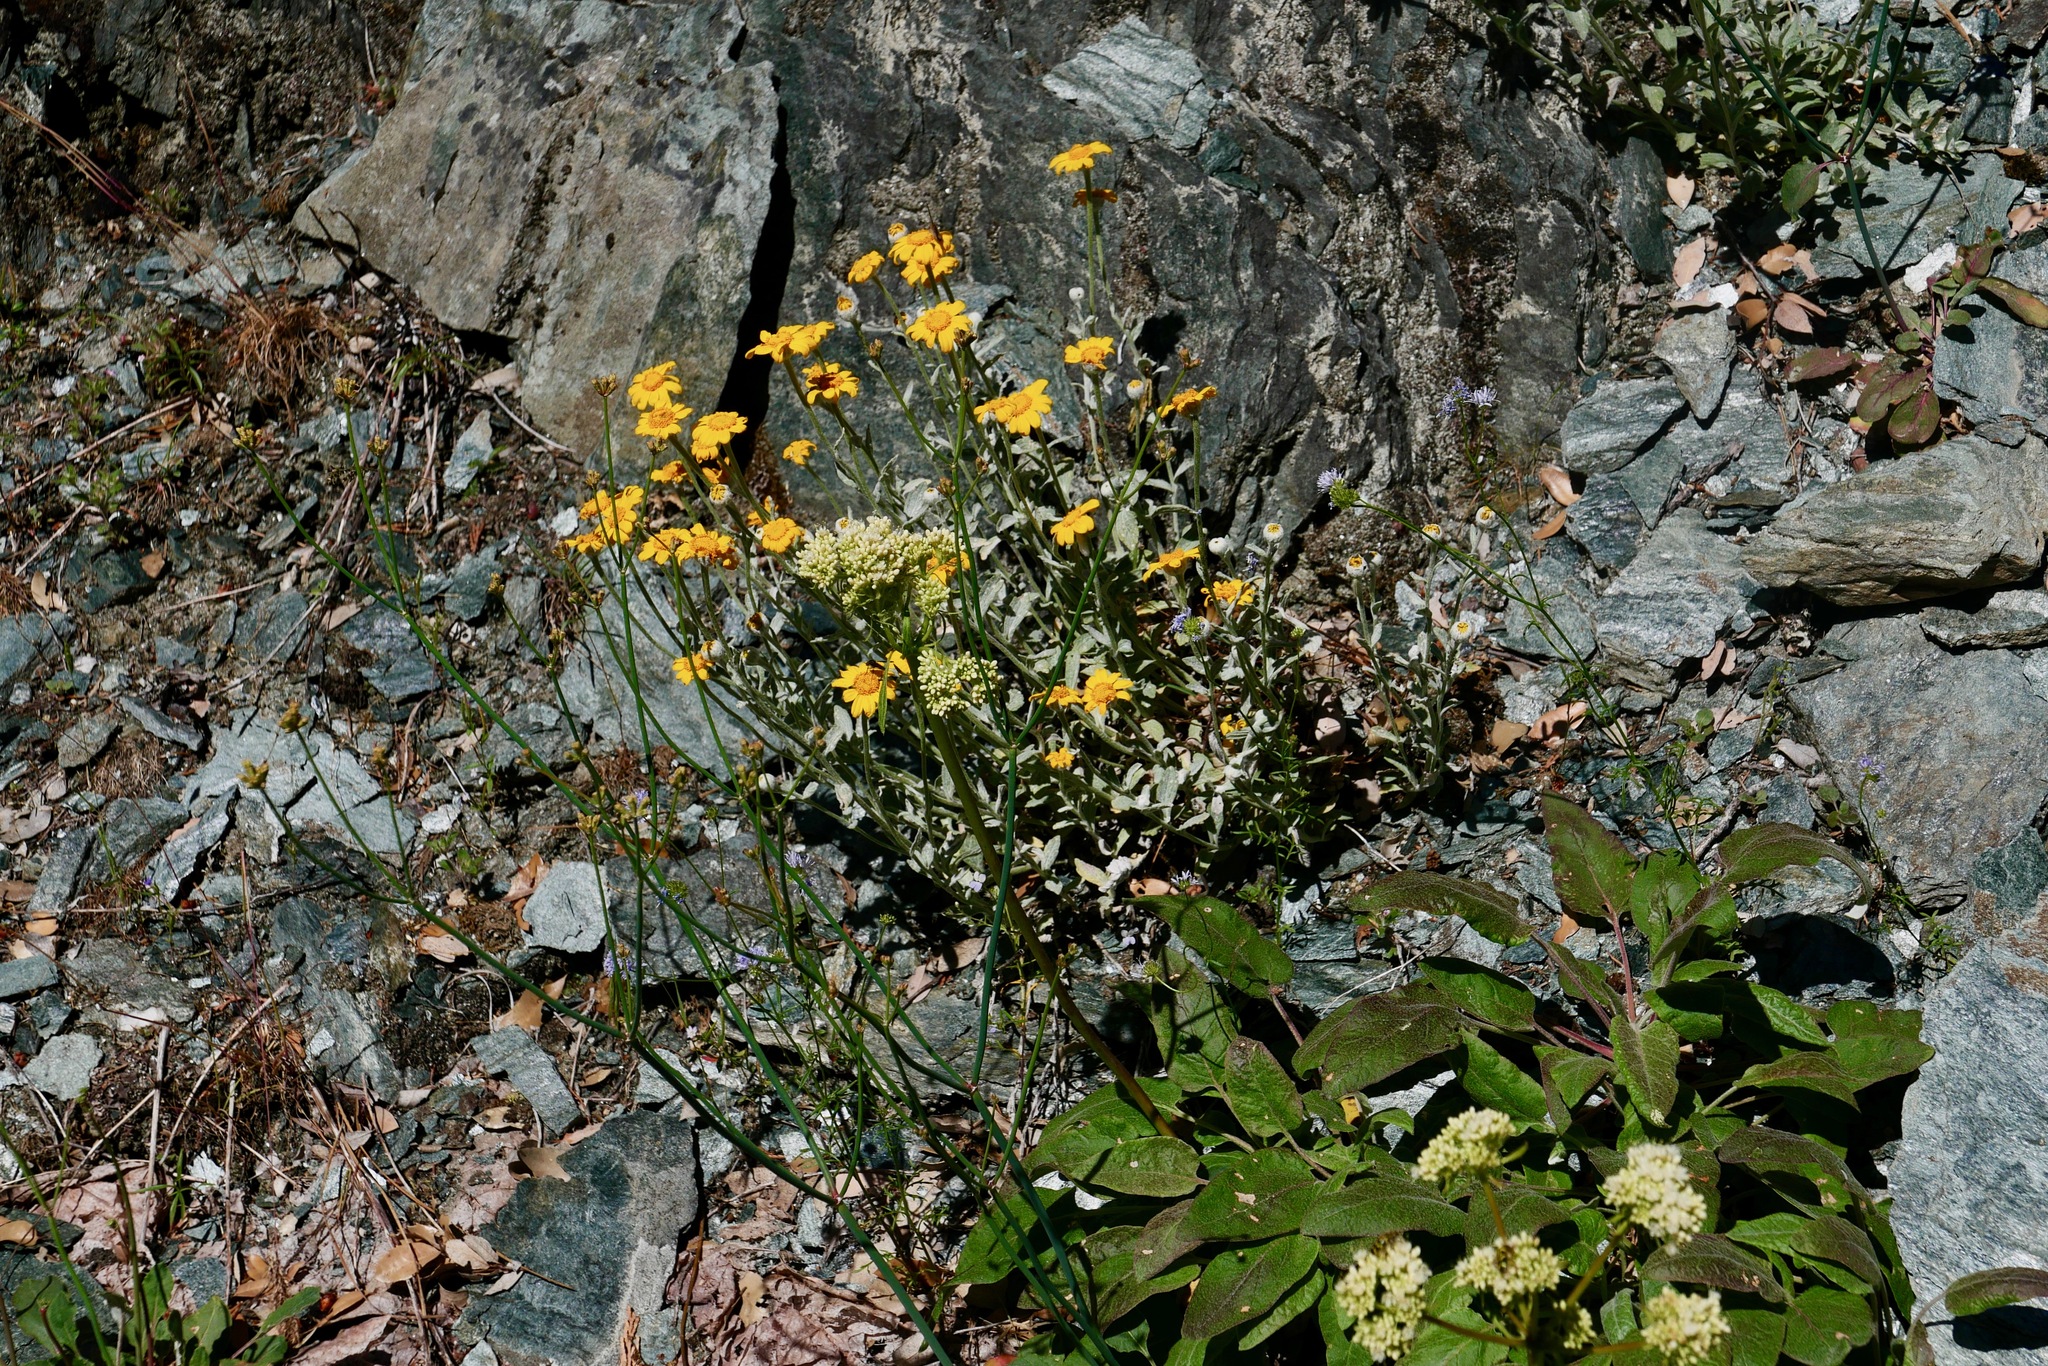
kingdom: Plantae
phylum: Tracheophyta
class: Magnoliopsida
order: Asterales
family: Asteraceae
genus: Eriophyllum
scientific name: Eriophyllum lanatum
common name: Common woolly-sunflower
